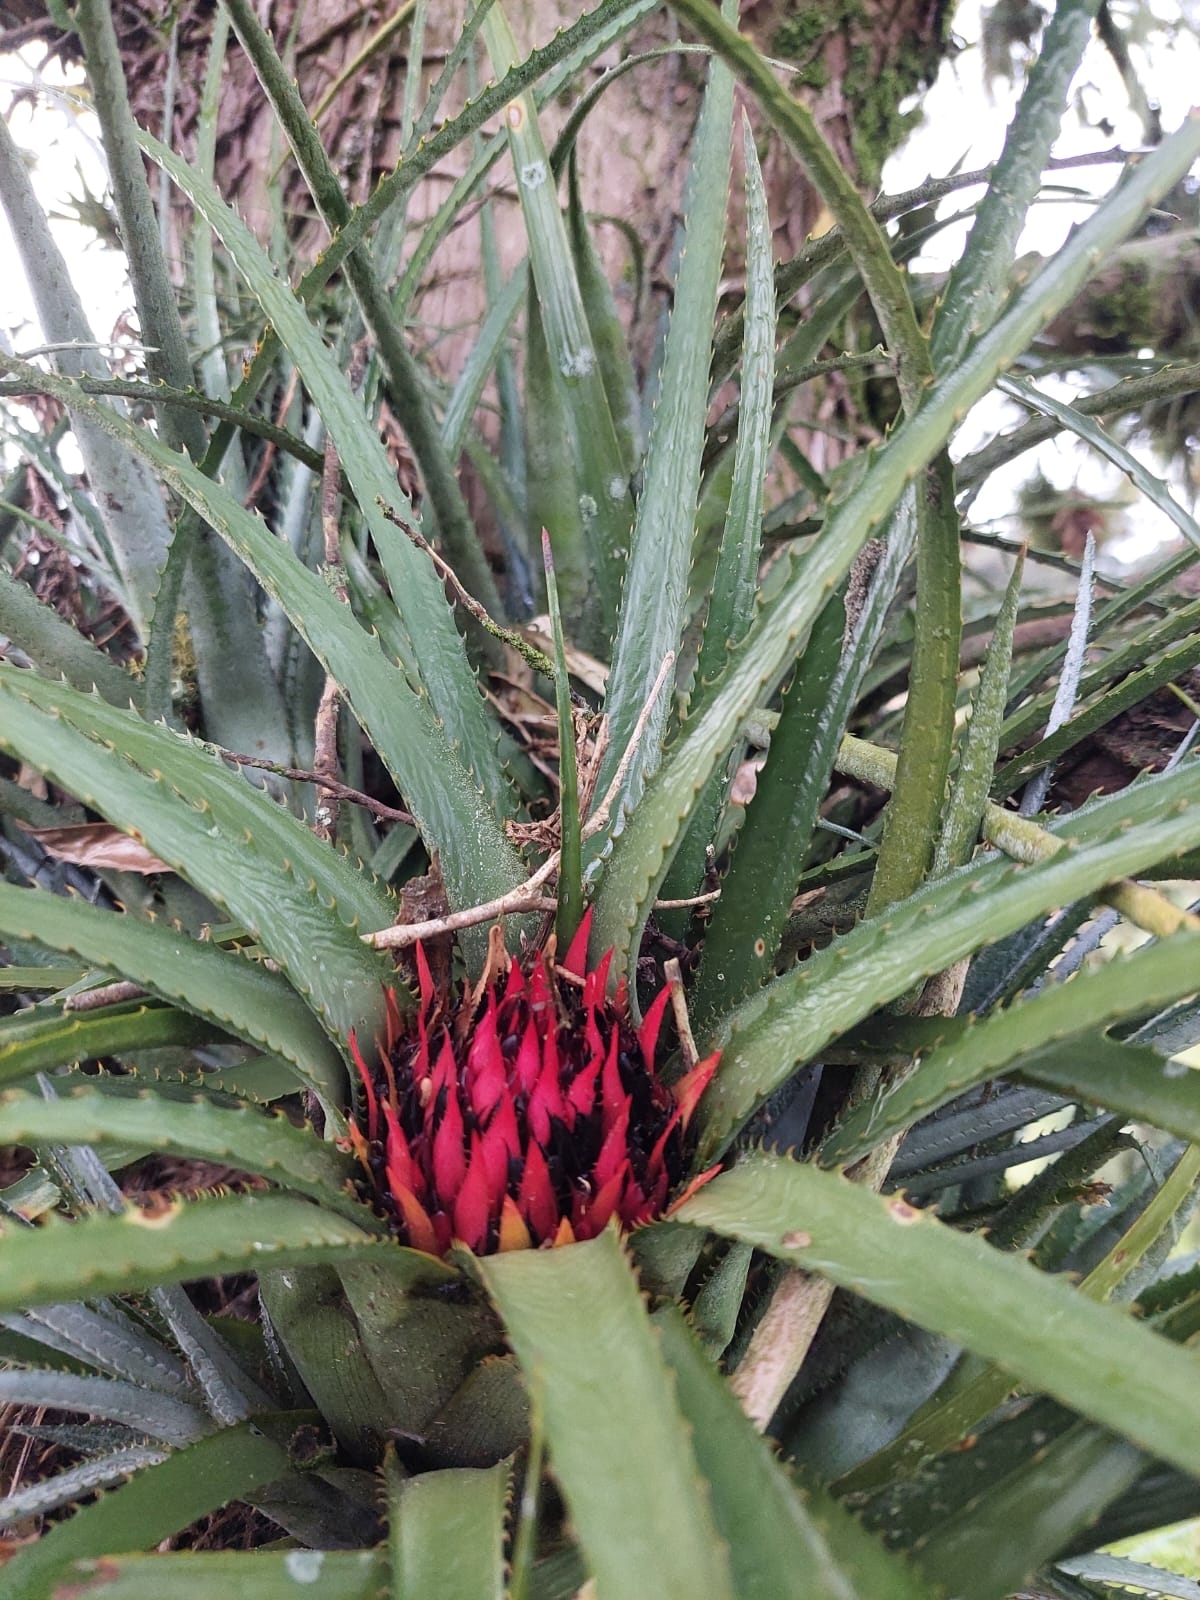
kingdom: Plantae
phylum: Tracheophyta
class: Liliopsida
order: Poales
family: Bromeliaceae
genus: Aechmea
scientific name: Aechmea recurvata
